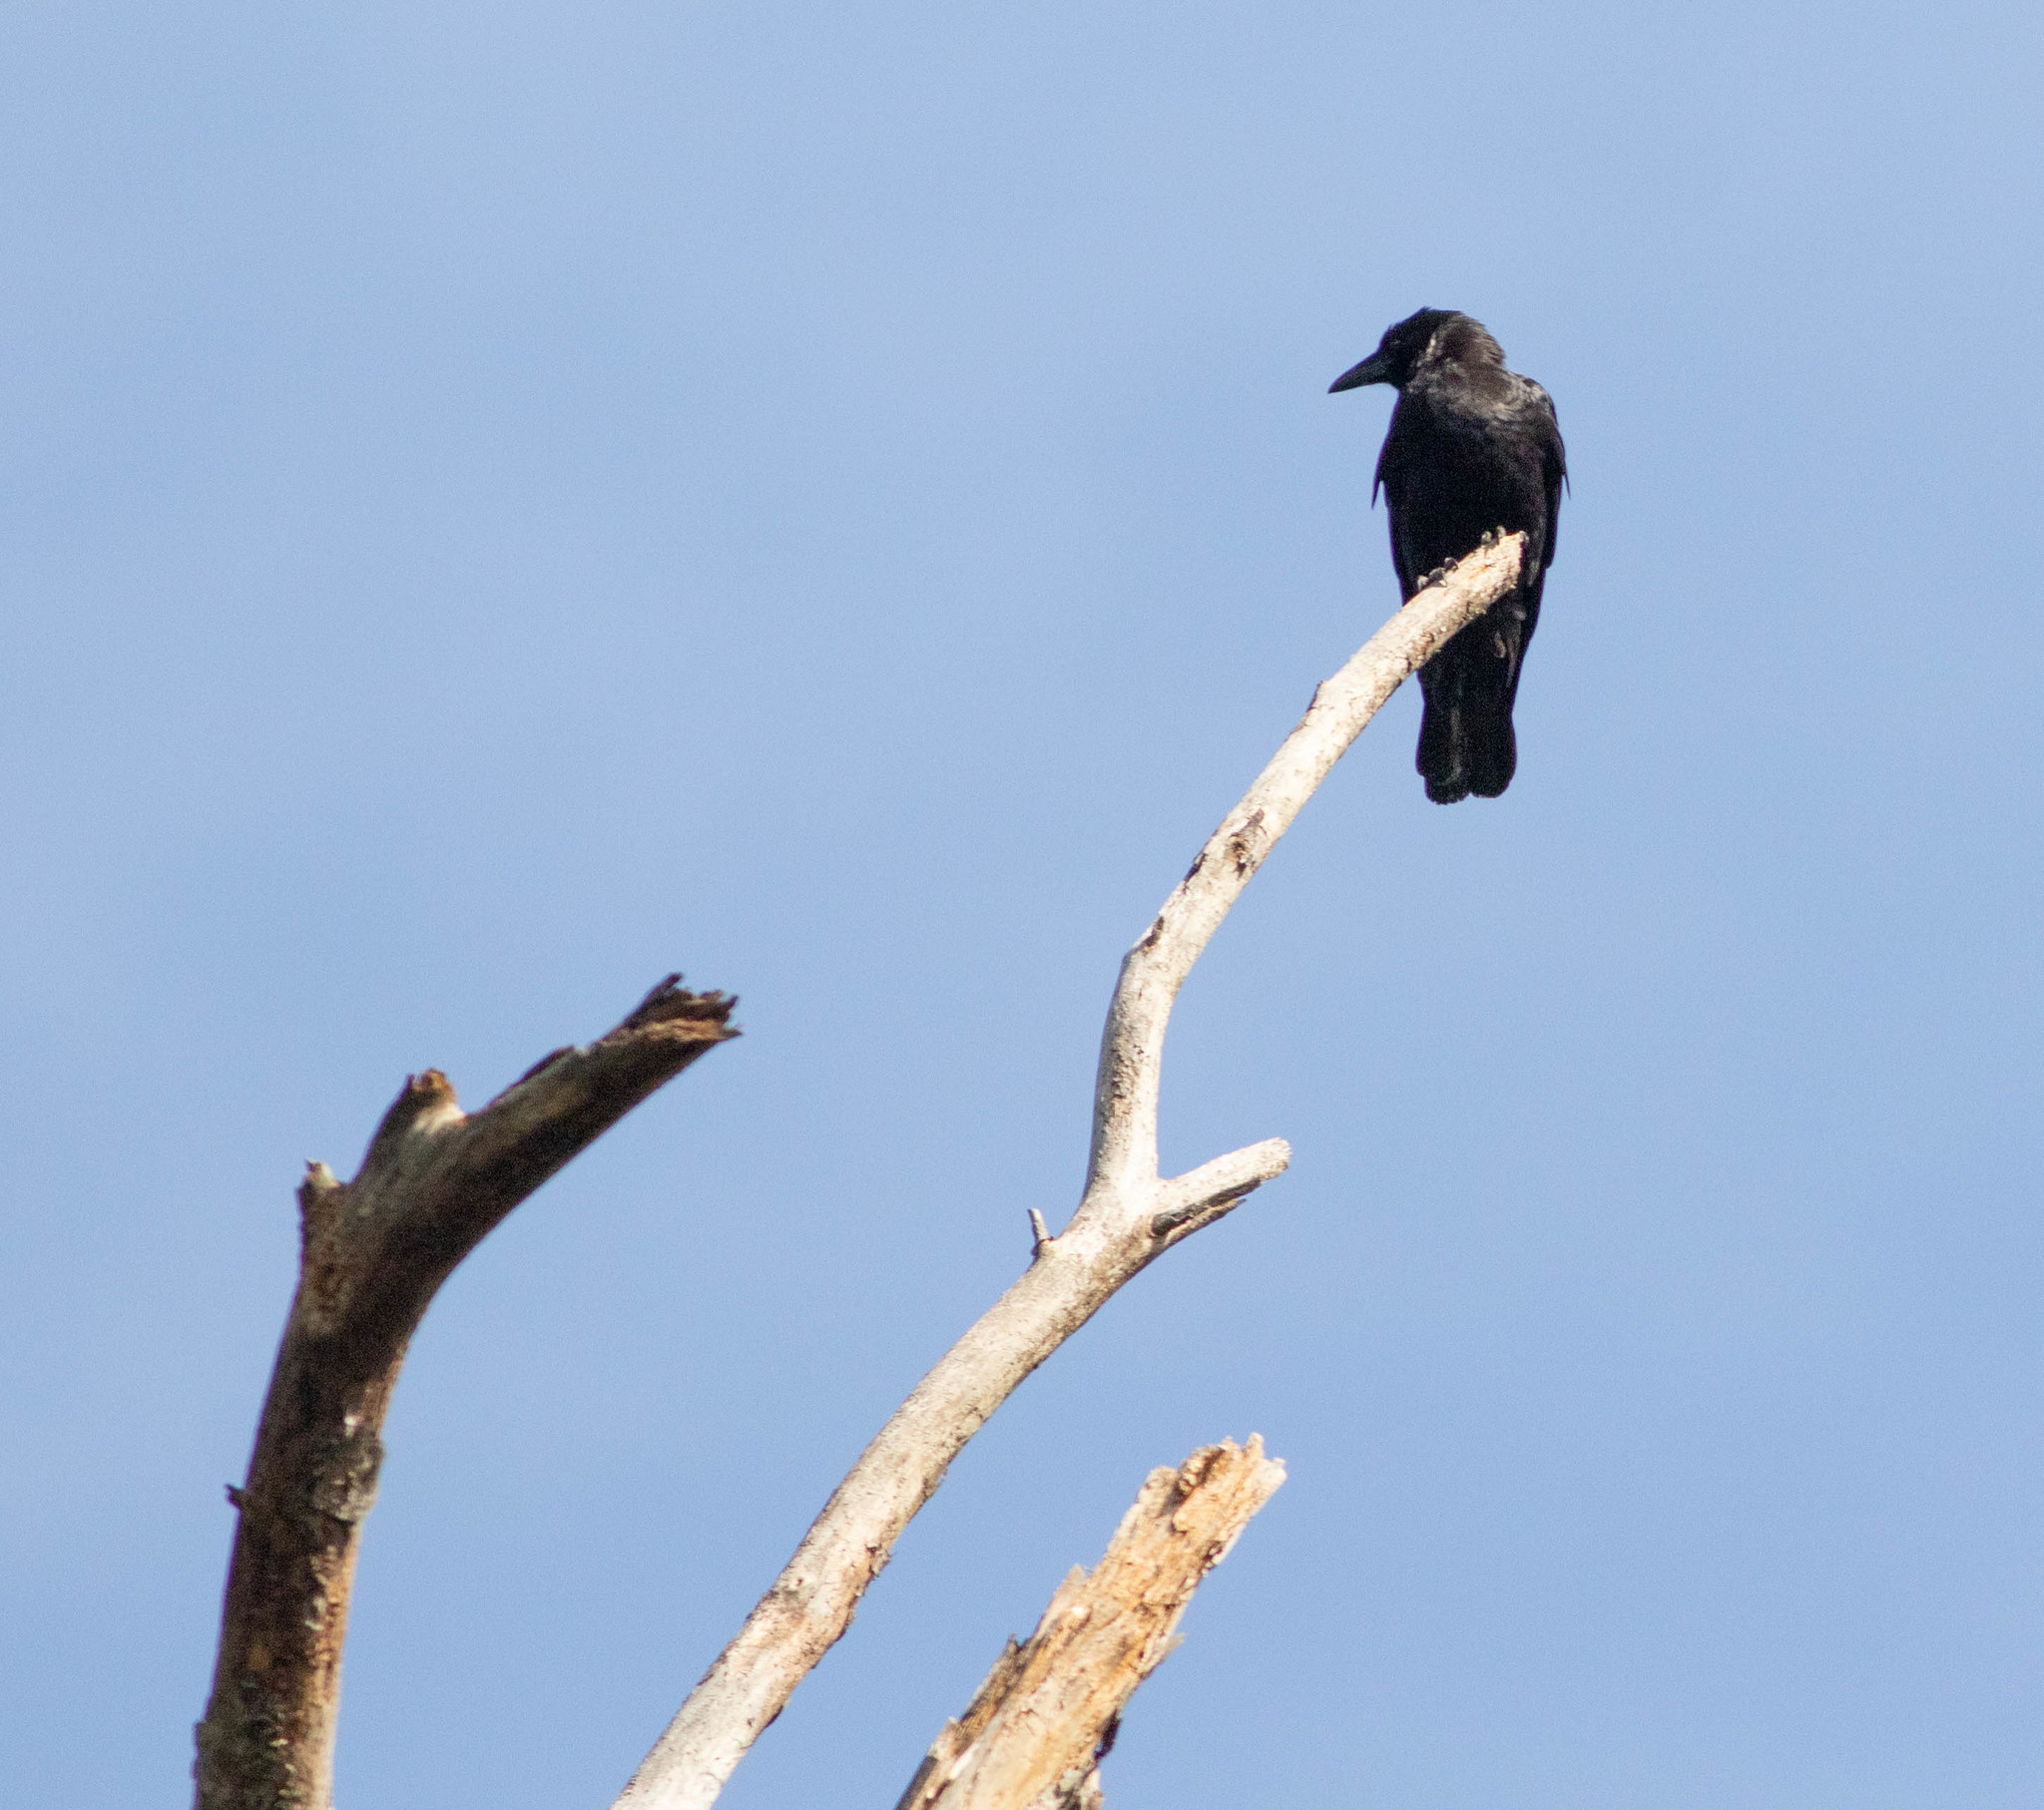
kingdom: Animalia
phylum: Chordata
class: Aves
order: Passeriformes
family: Corvidae
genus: Corvus
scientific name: Corvus ossifragus
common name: Fish crow
